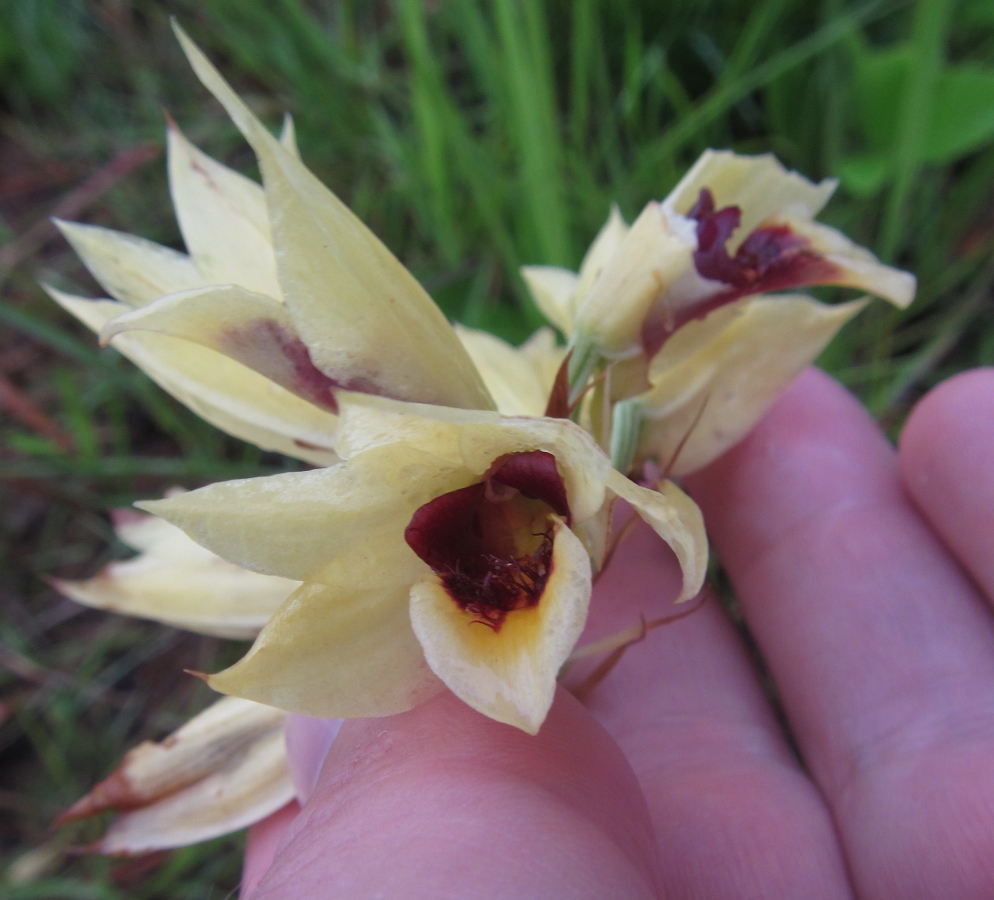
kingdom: Plantae
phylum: Tracheophyta
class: Liliopsida
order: Asparagales
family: Orchidaceae
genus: Eulophia
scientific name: Eulophia welwitschii
